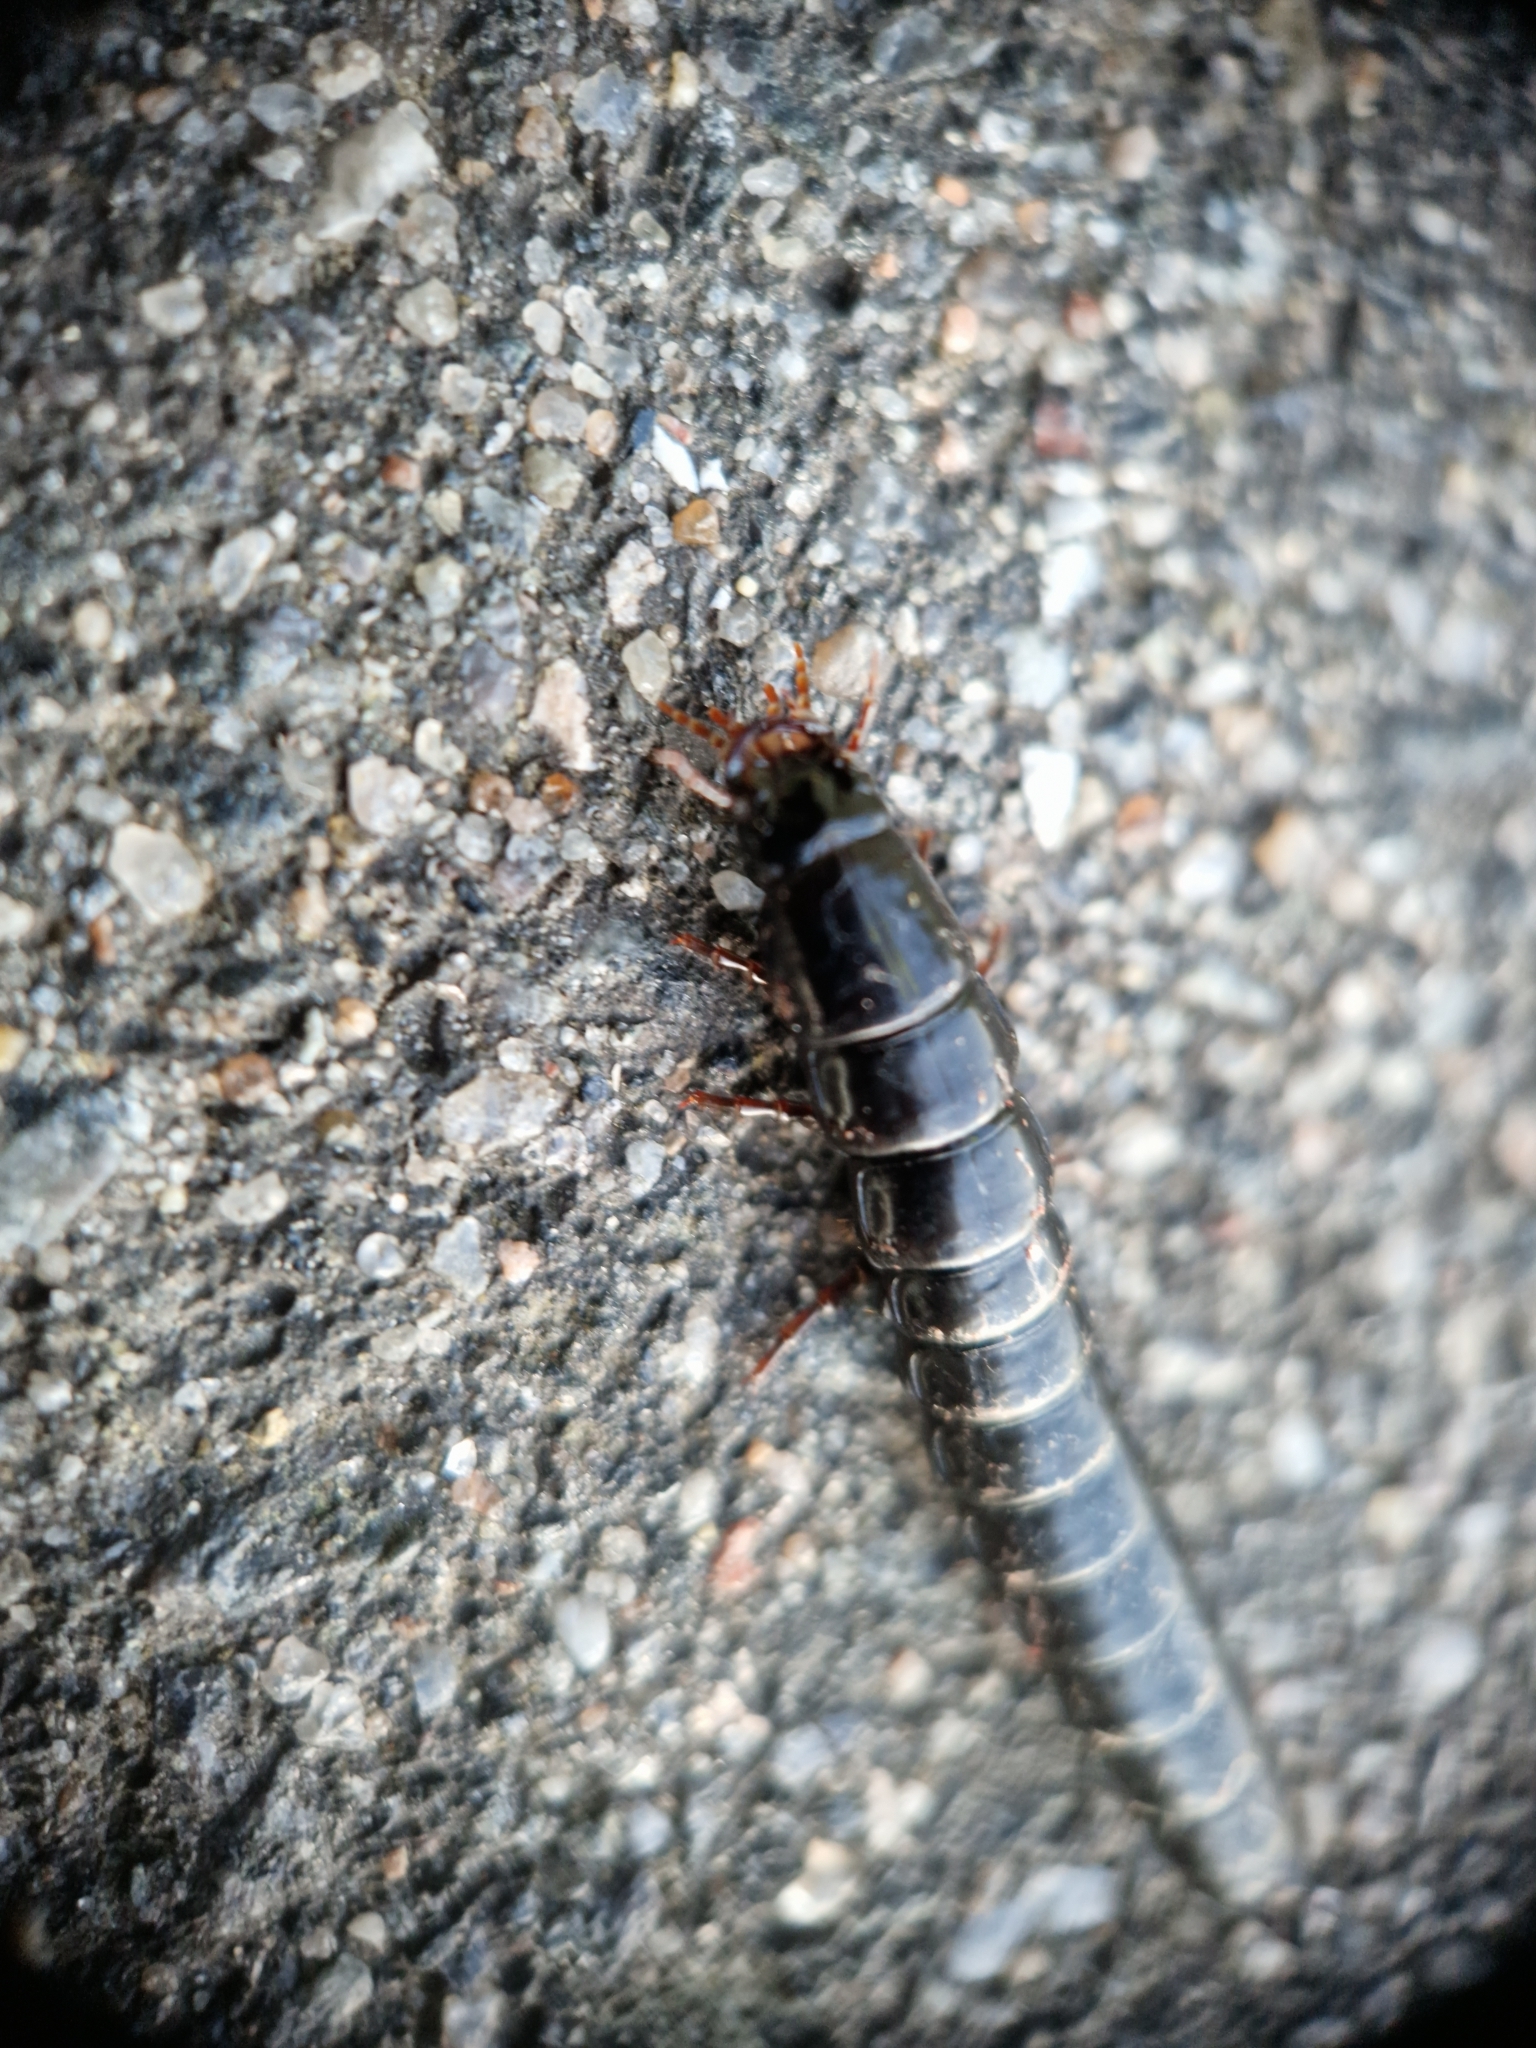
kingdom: Animalia
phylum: Arthropoda
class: Insecta
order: Coleoptera
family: Carabidae
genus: Carabus
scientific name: Carabus
